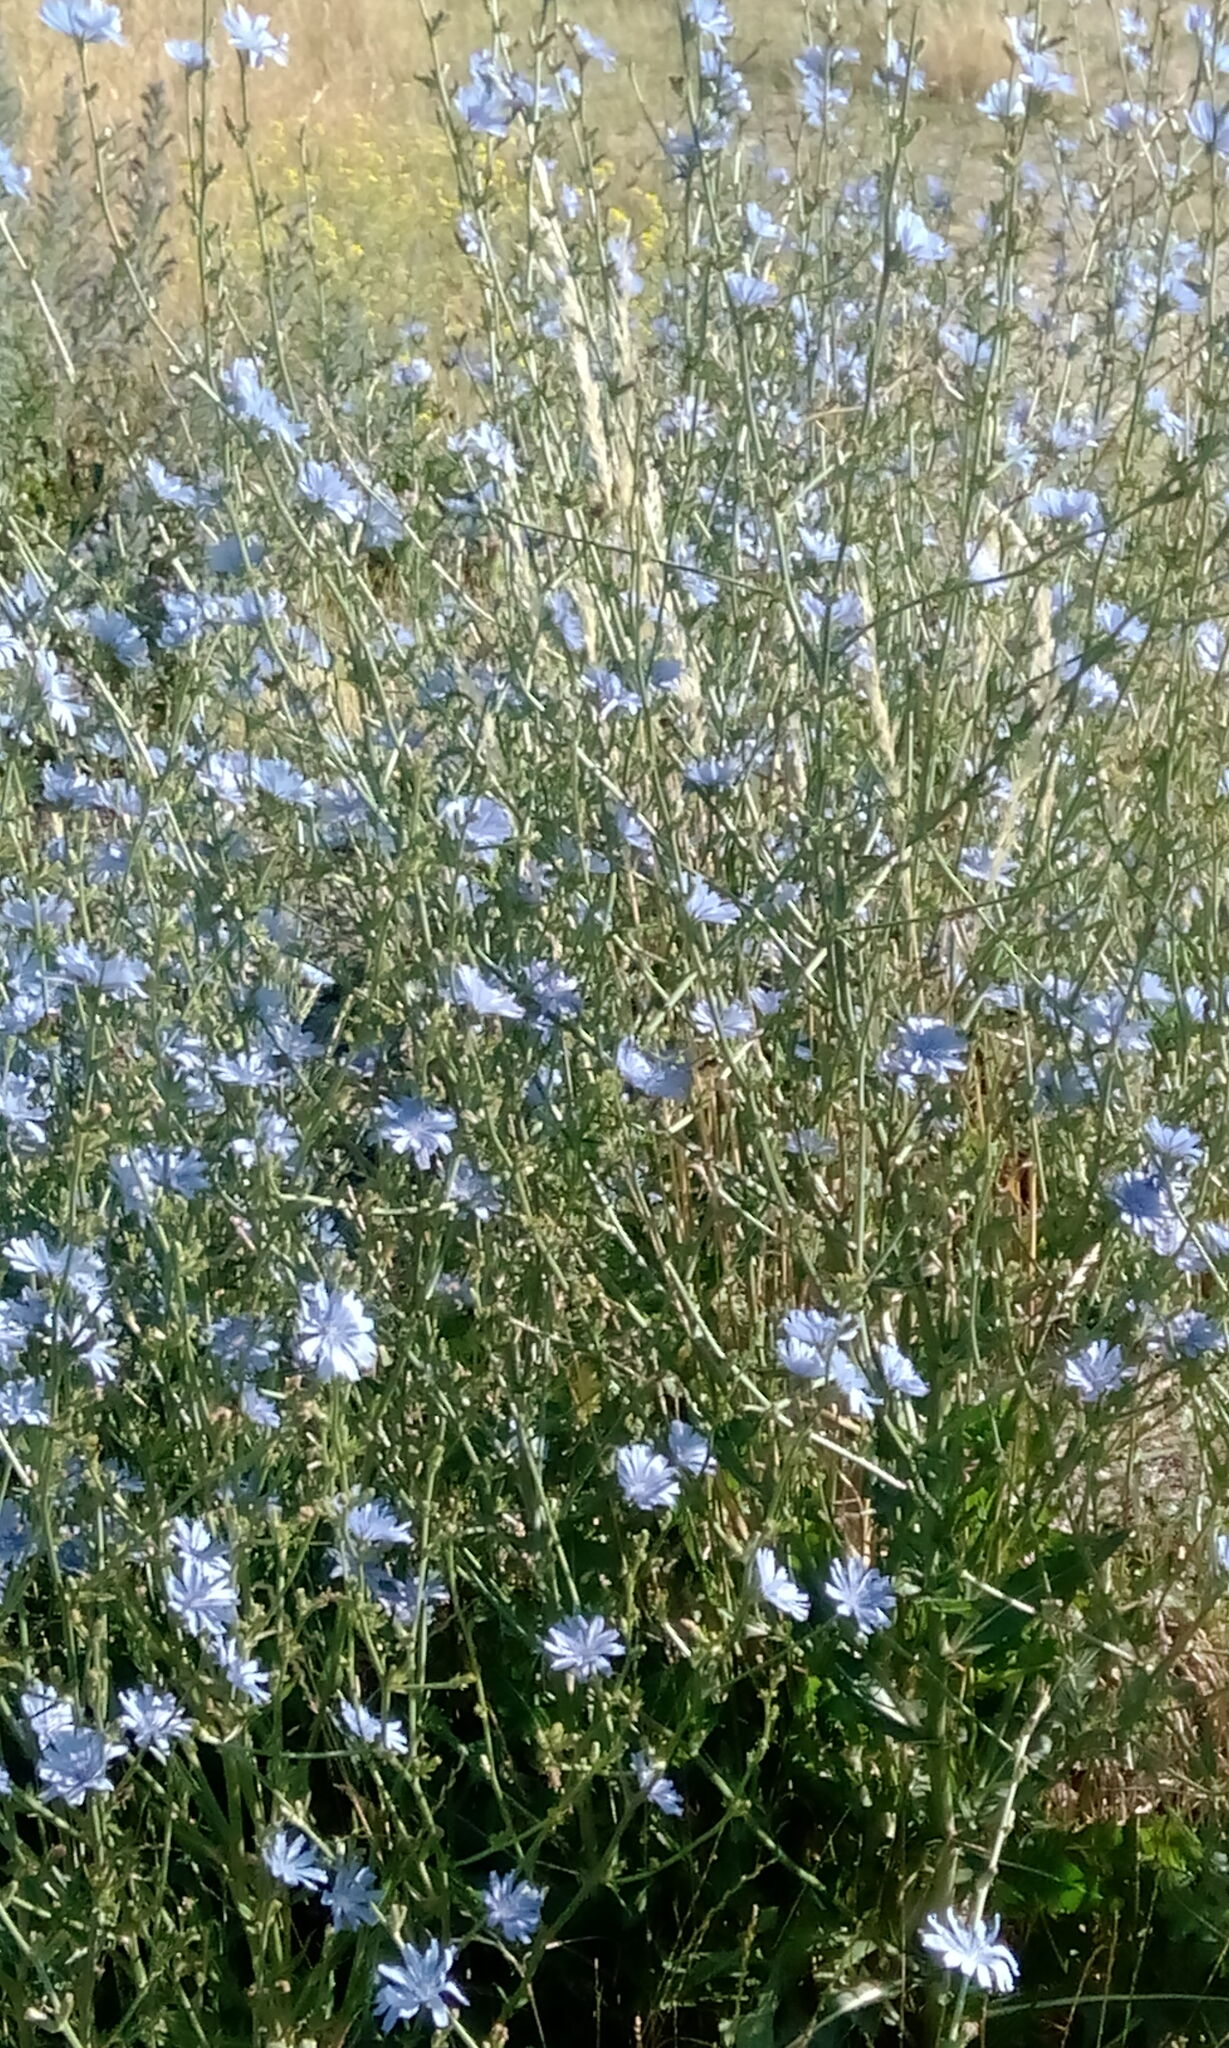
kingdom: Plantae
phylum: Tracheophyta
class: Magnoliopsida
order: Asterales
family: Asteraceae
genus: Cichorium
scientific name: Cichorium intybus
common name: Chicory
